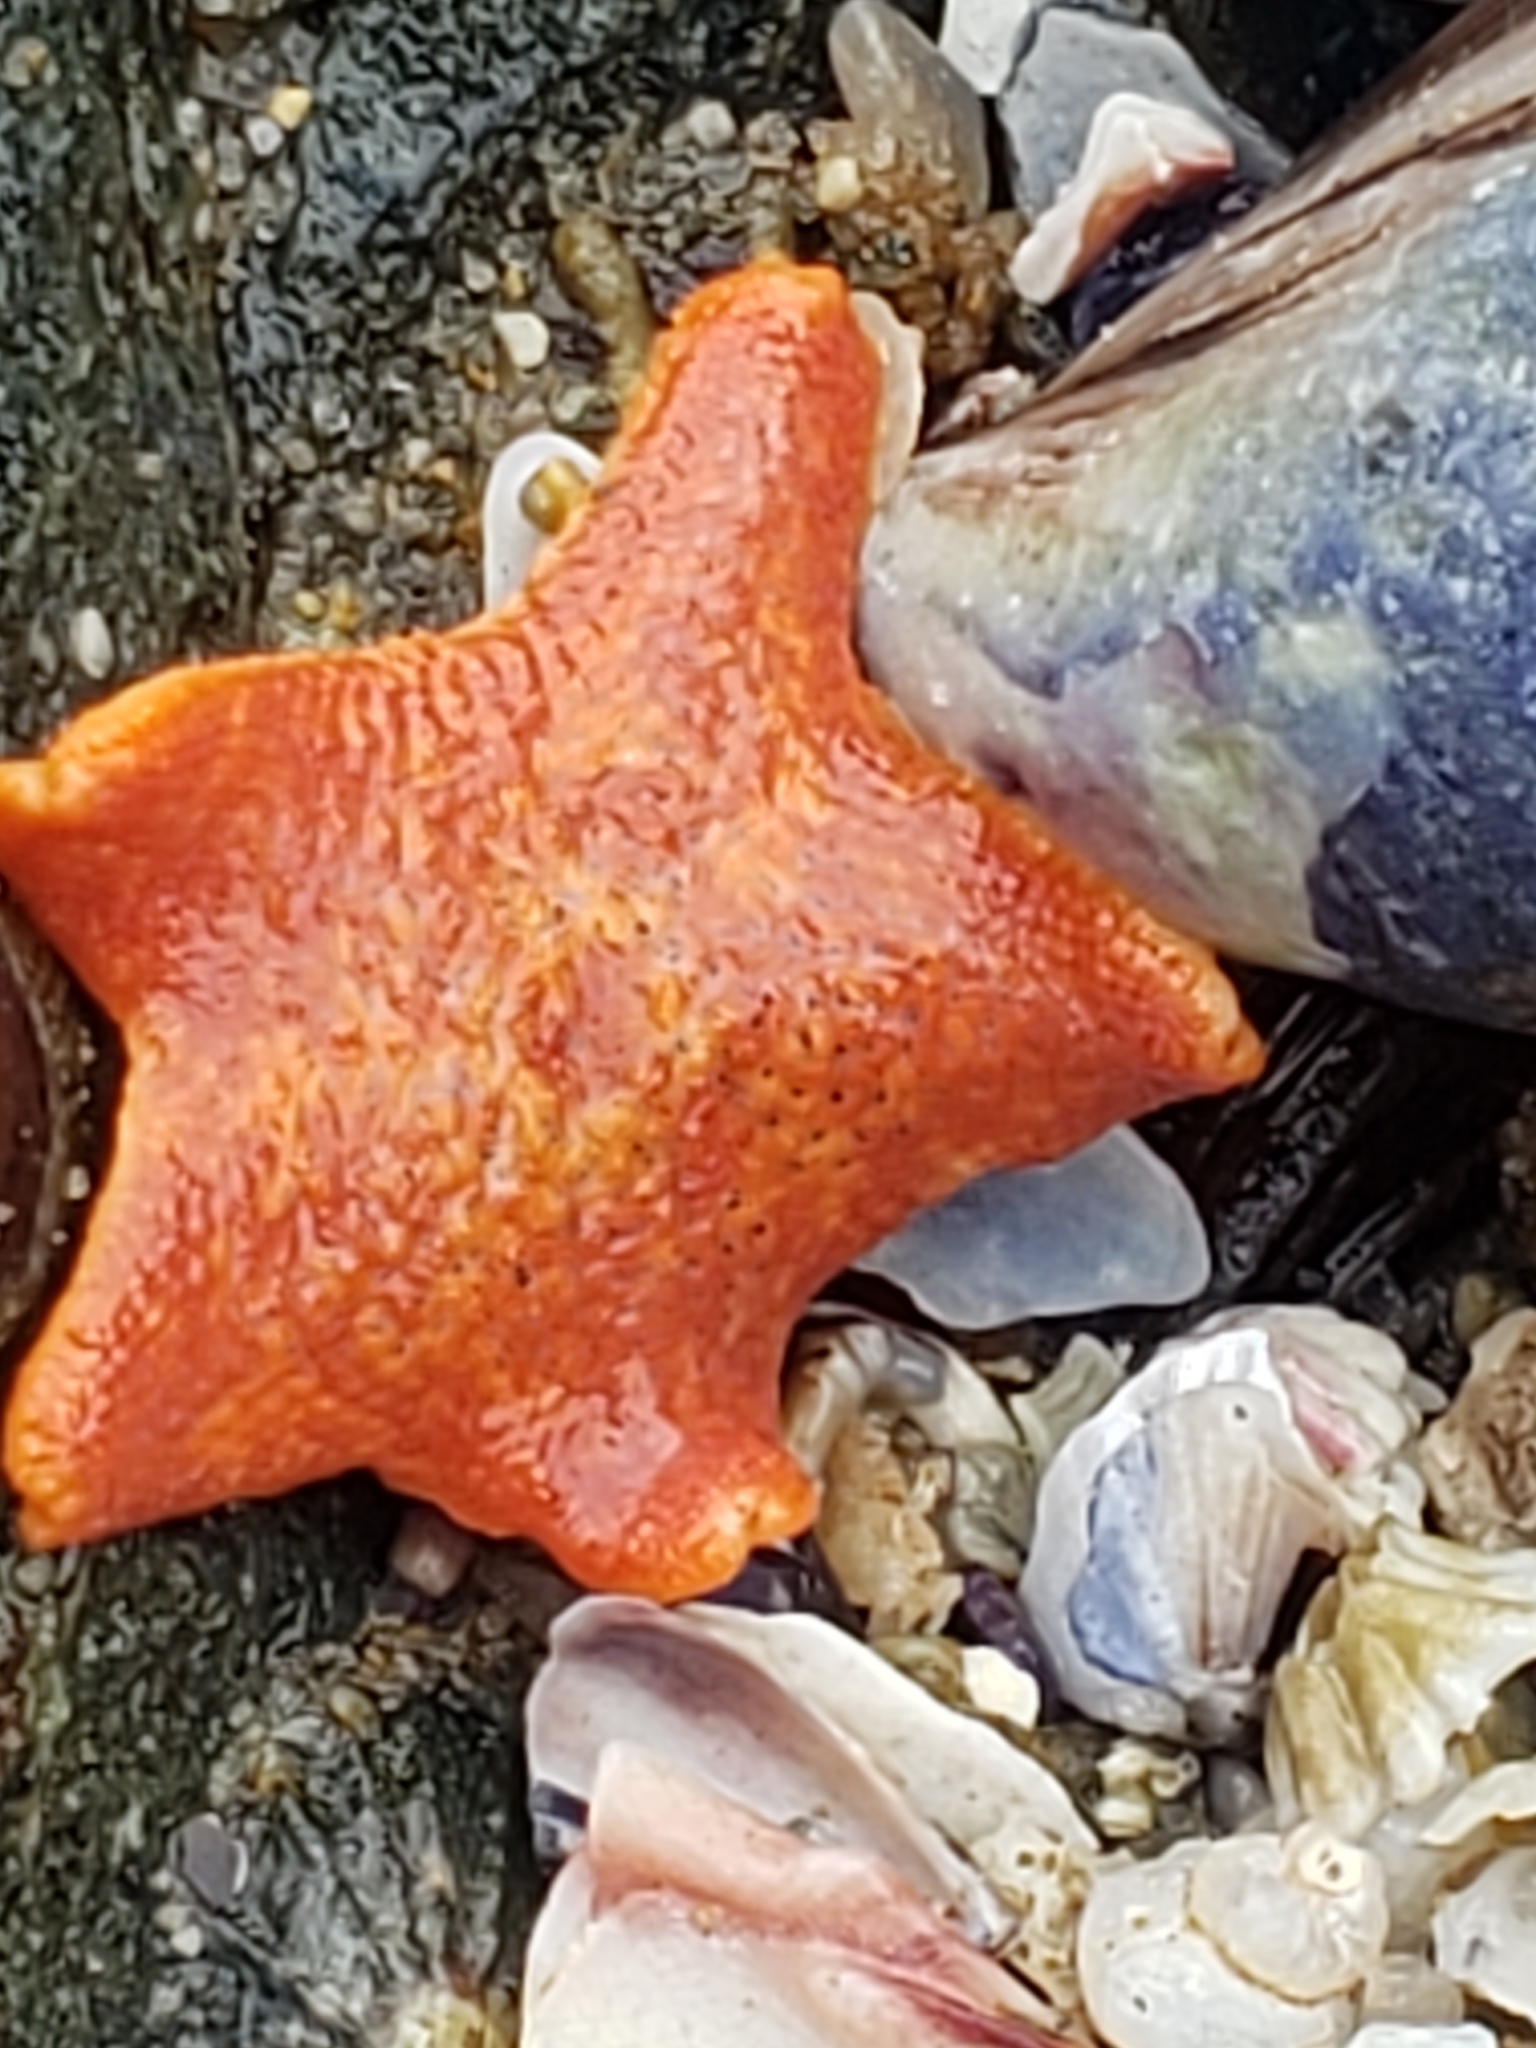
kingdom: Animalia
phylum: Echinodermata
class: Asteroidea
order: Valvatida
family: Asterinidae
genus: Patiria
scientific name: Patiria miniata
